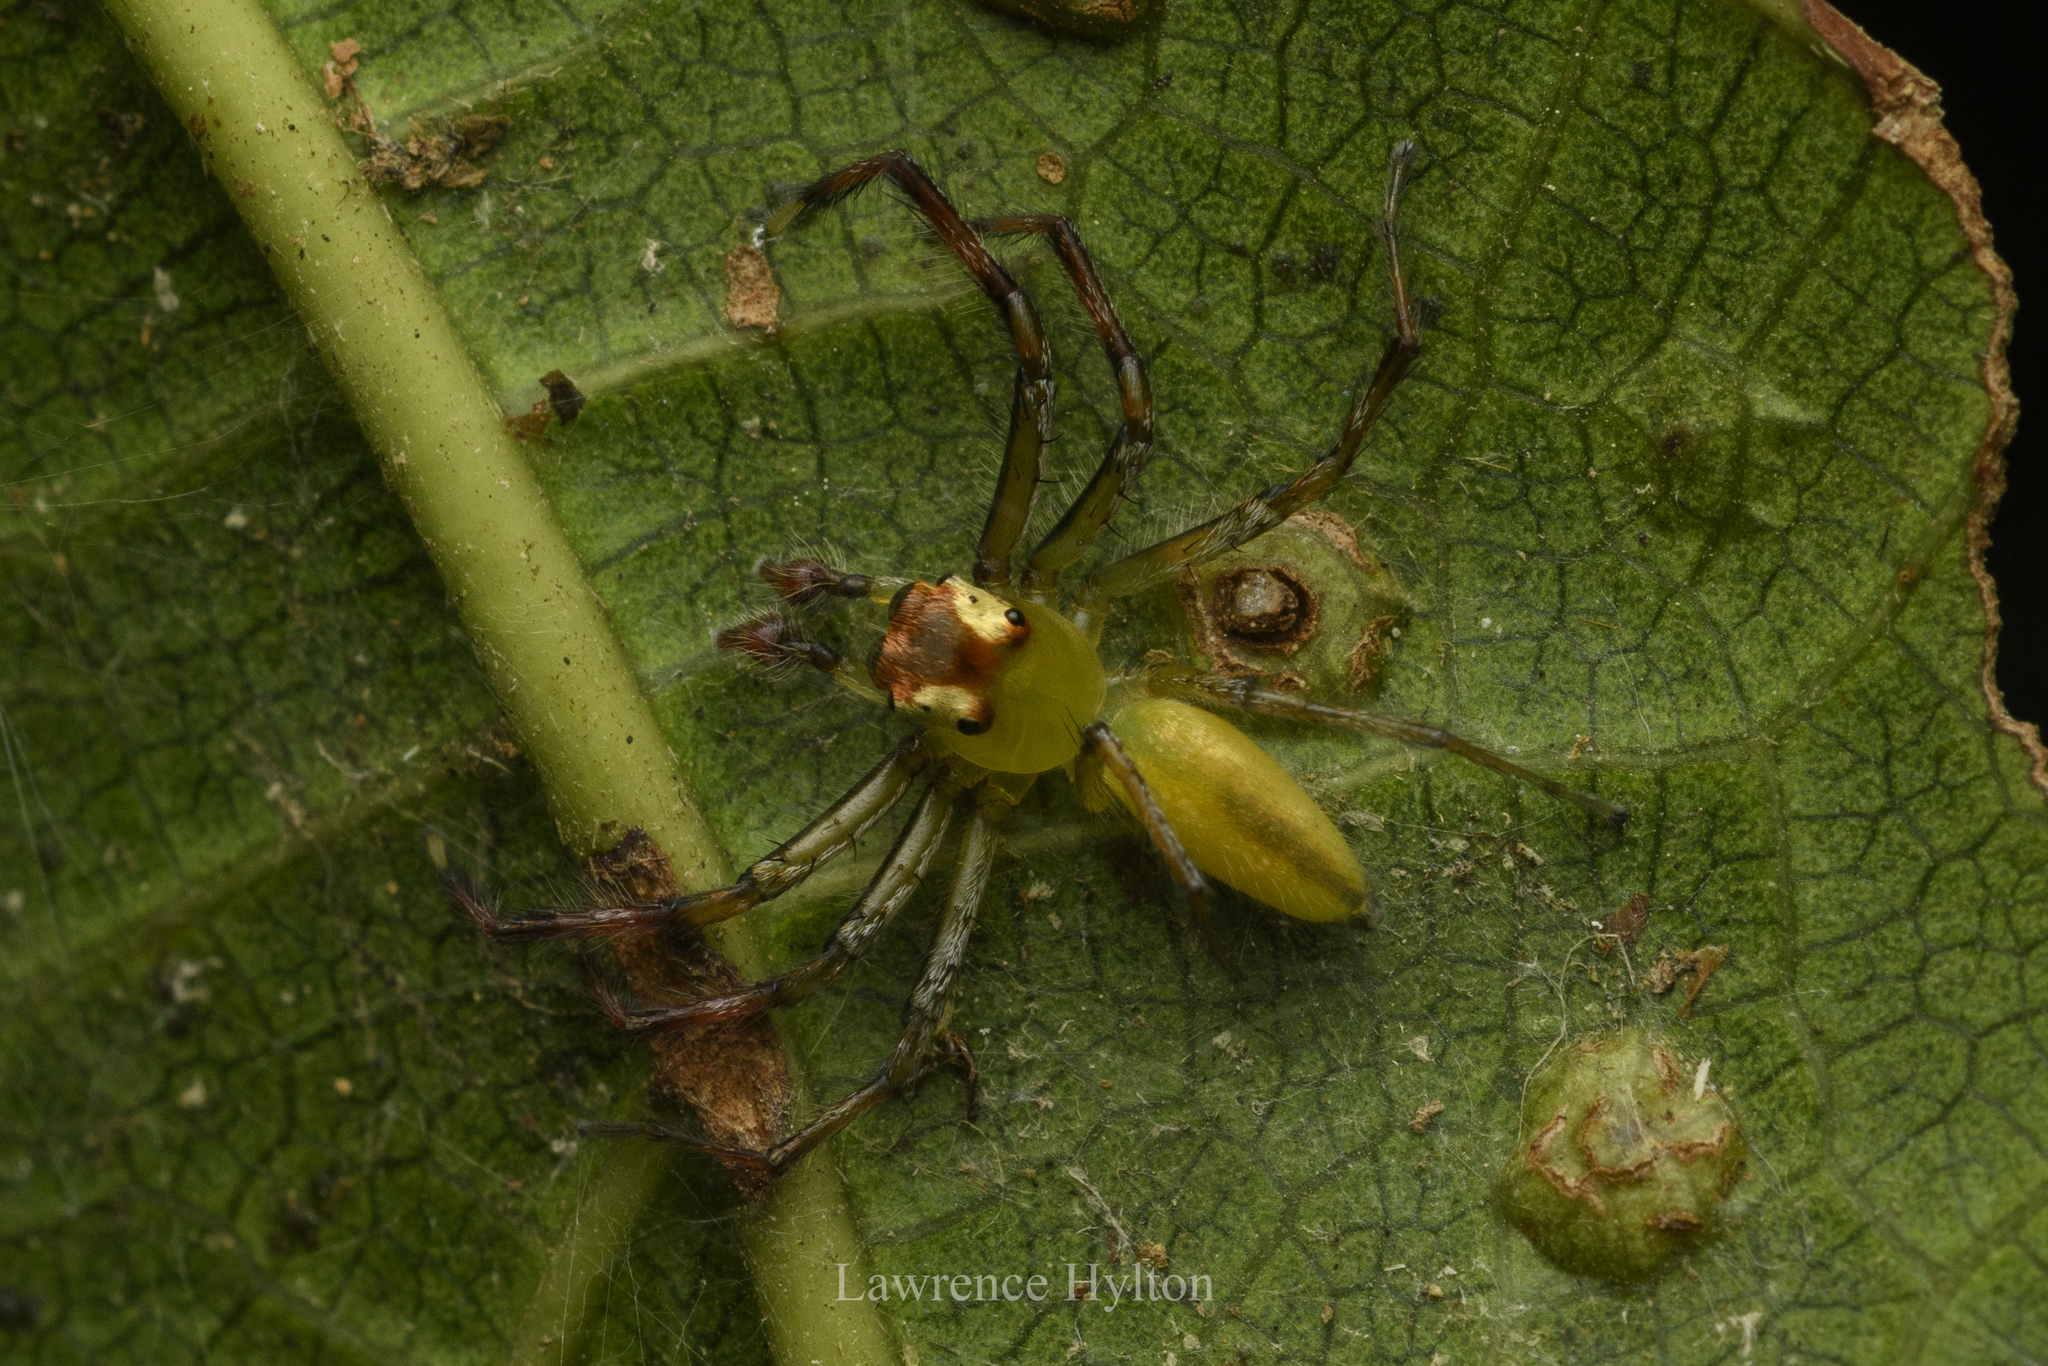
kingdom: Animalia
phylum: Arthropoda
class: Arachnida
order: Araneae
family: Salticidae
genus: Epeus
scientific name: Epeus glorius
